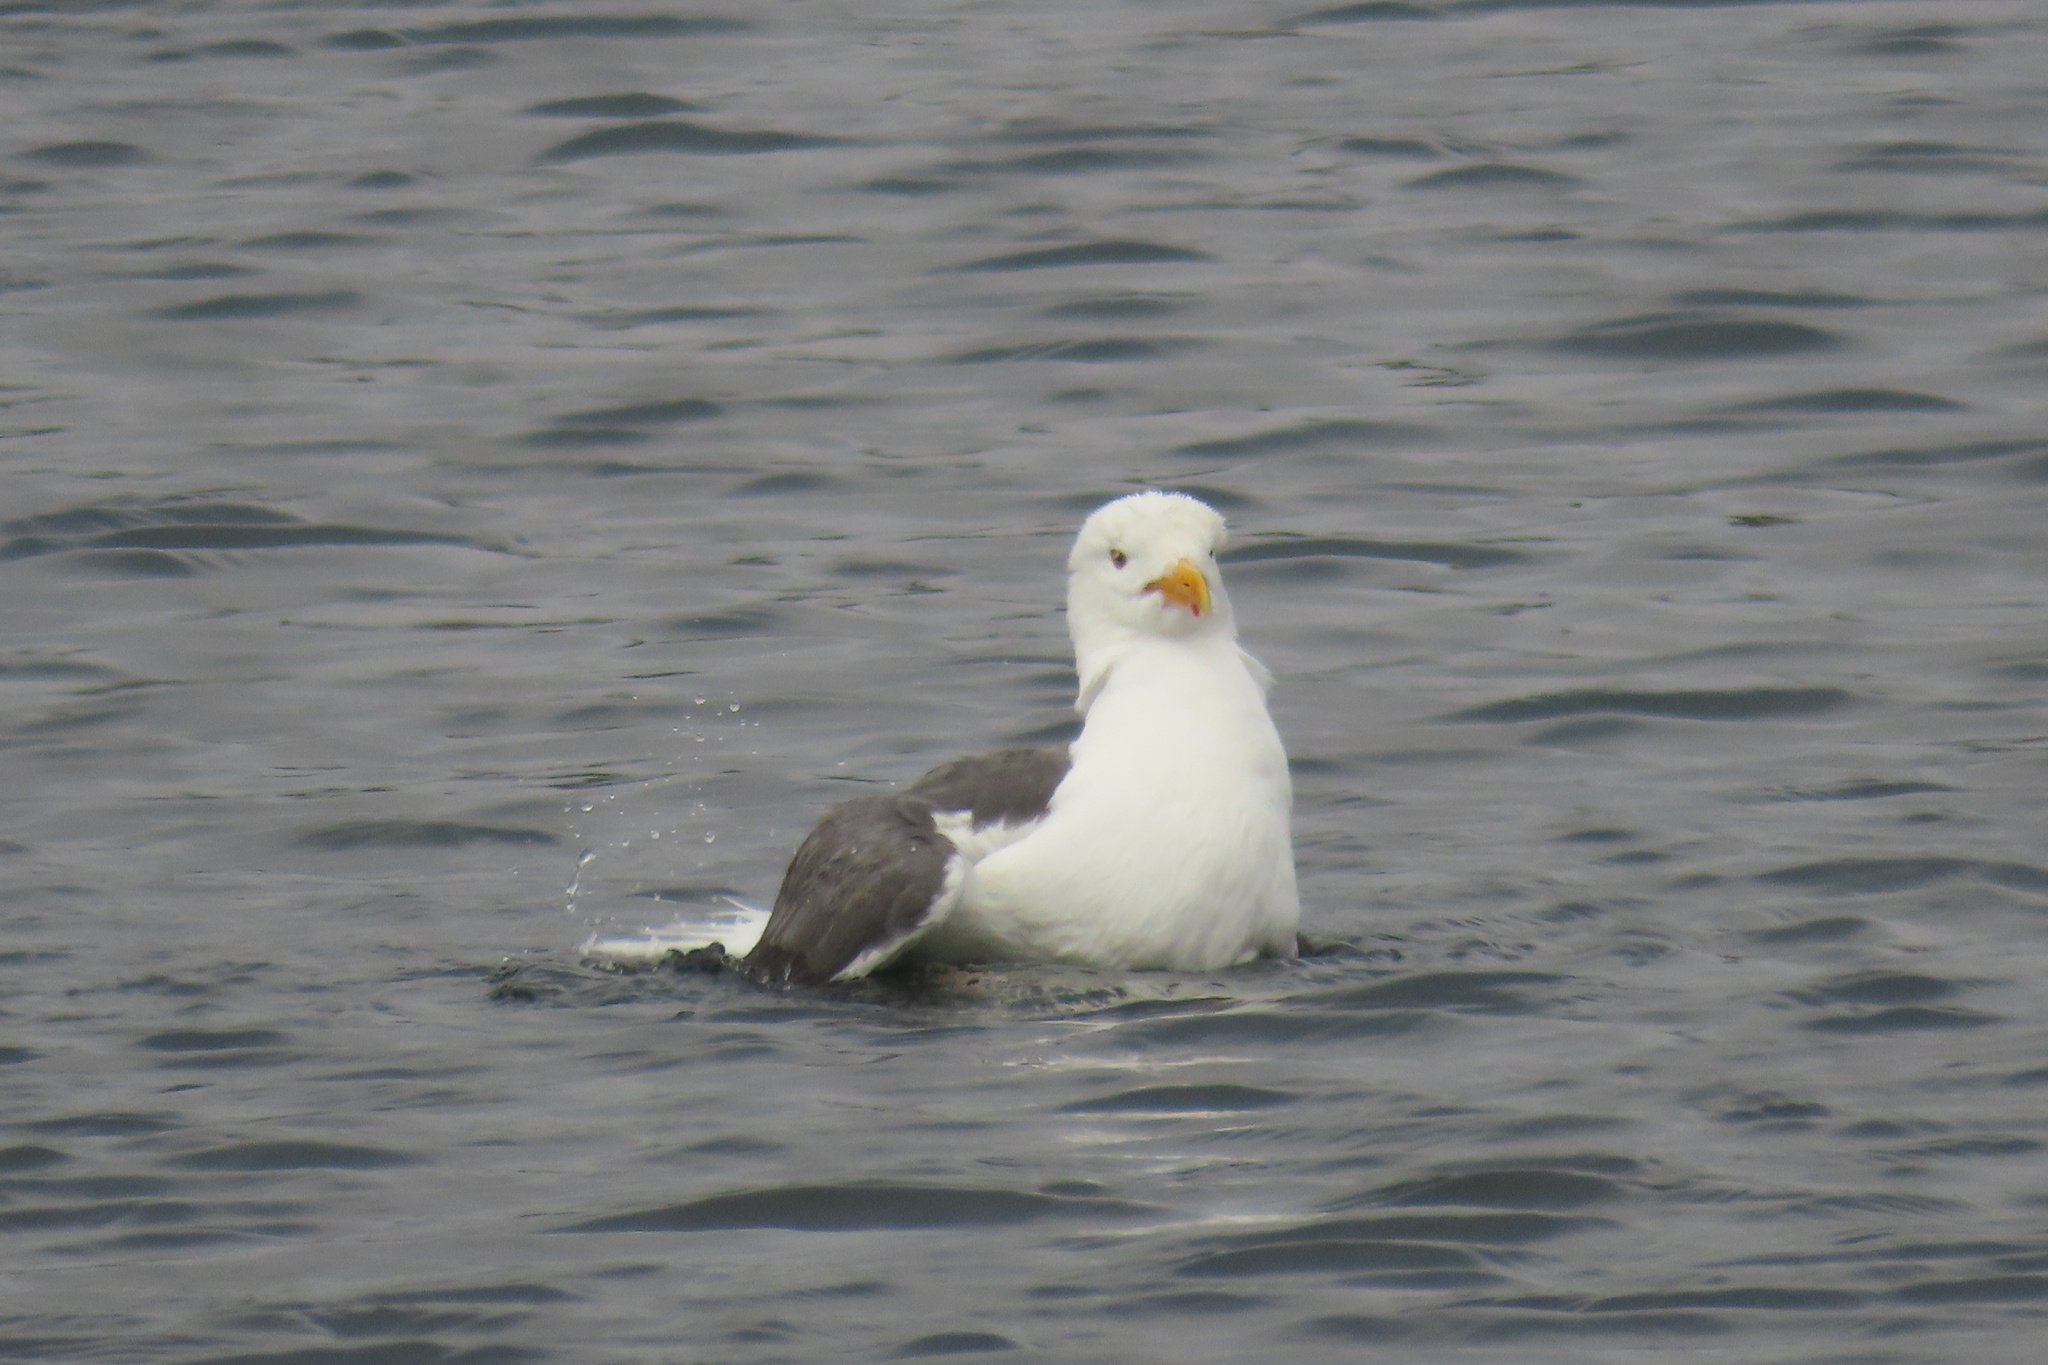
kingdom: Animalia
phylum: Chordata
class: Aves
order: Charadriiformes
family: Laridae
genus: Larus
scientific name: Larus occidentalis
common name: Western gull
